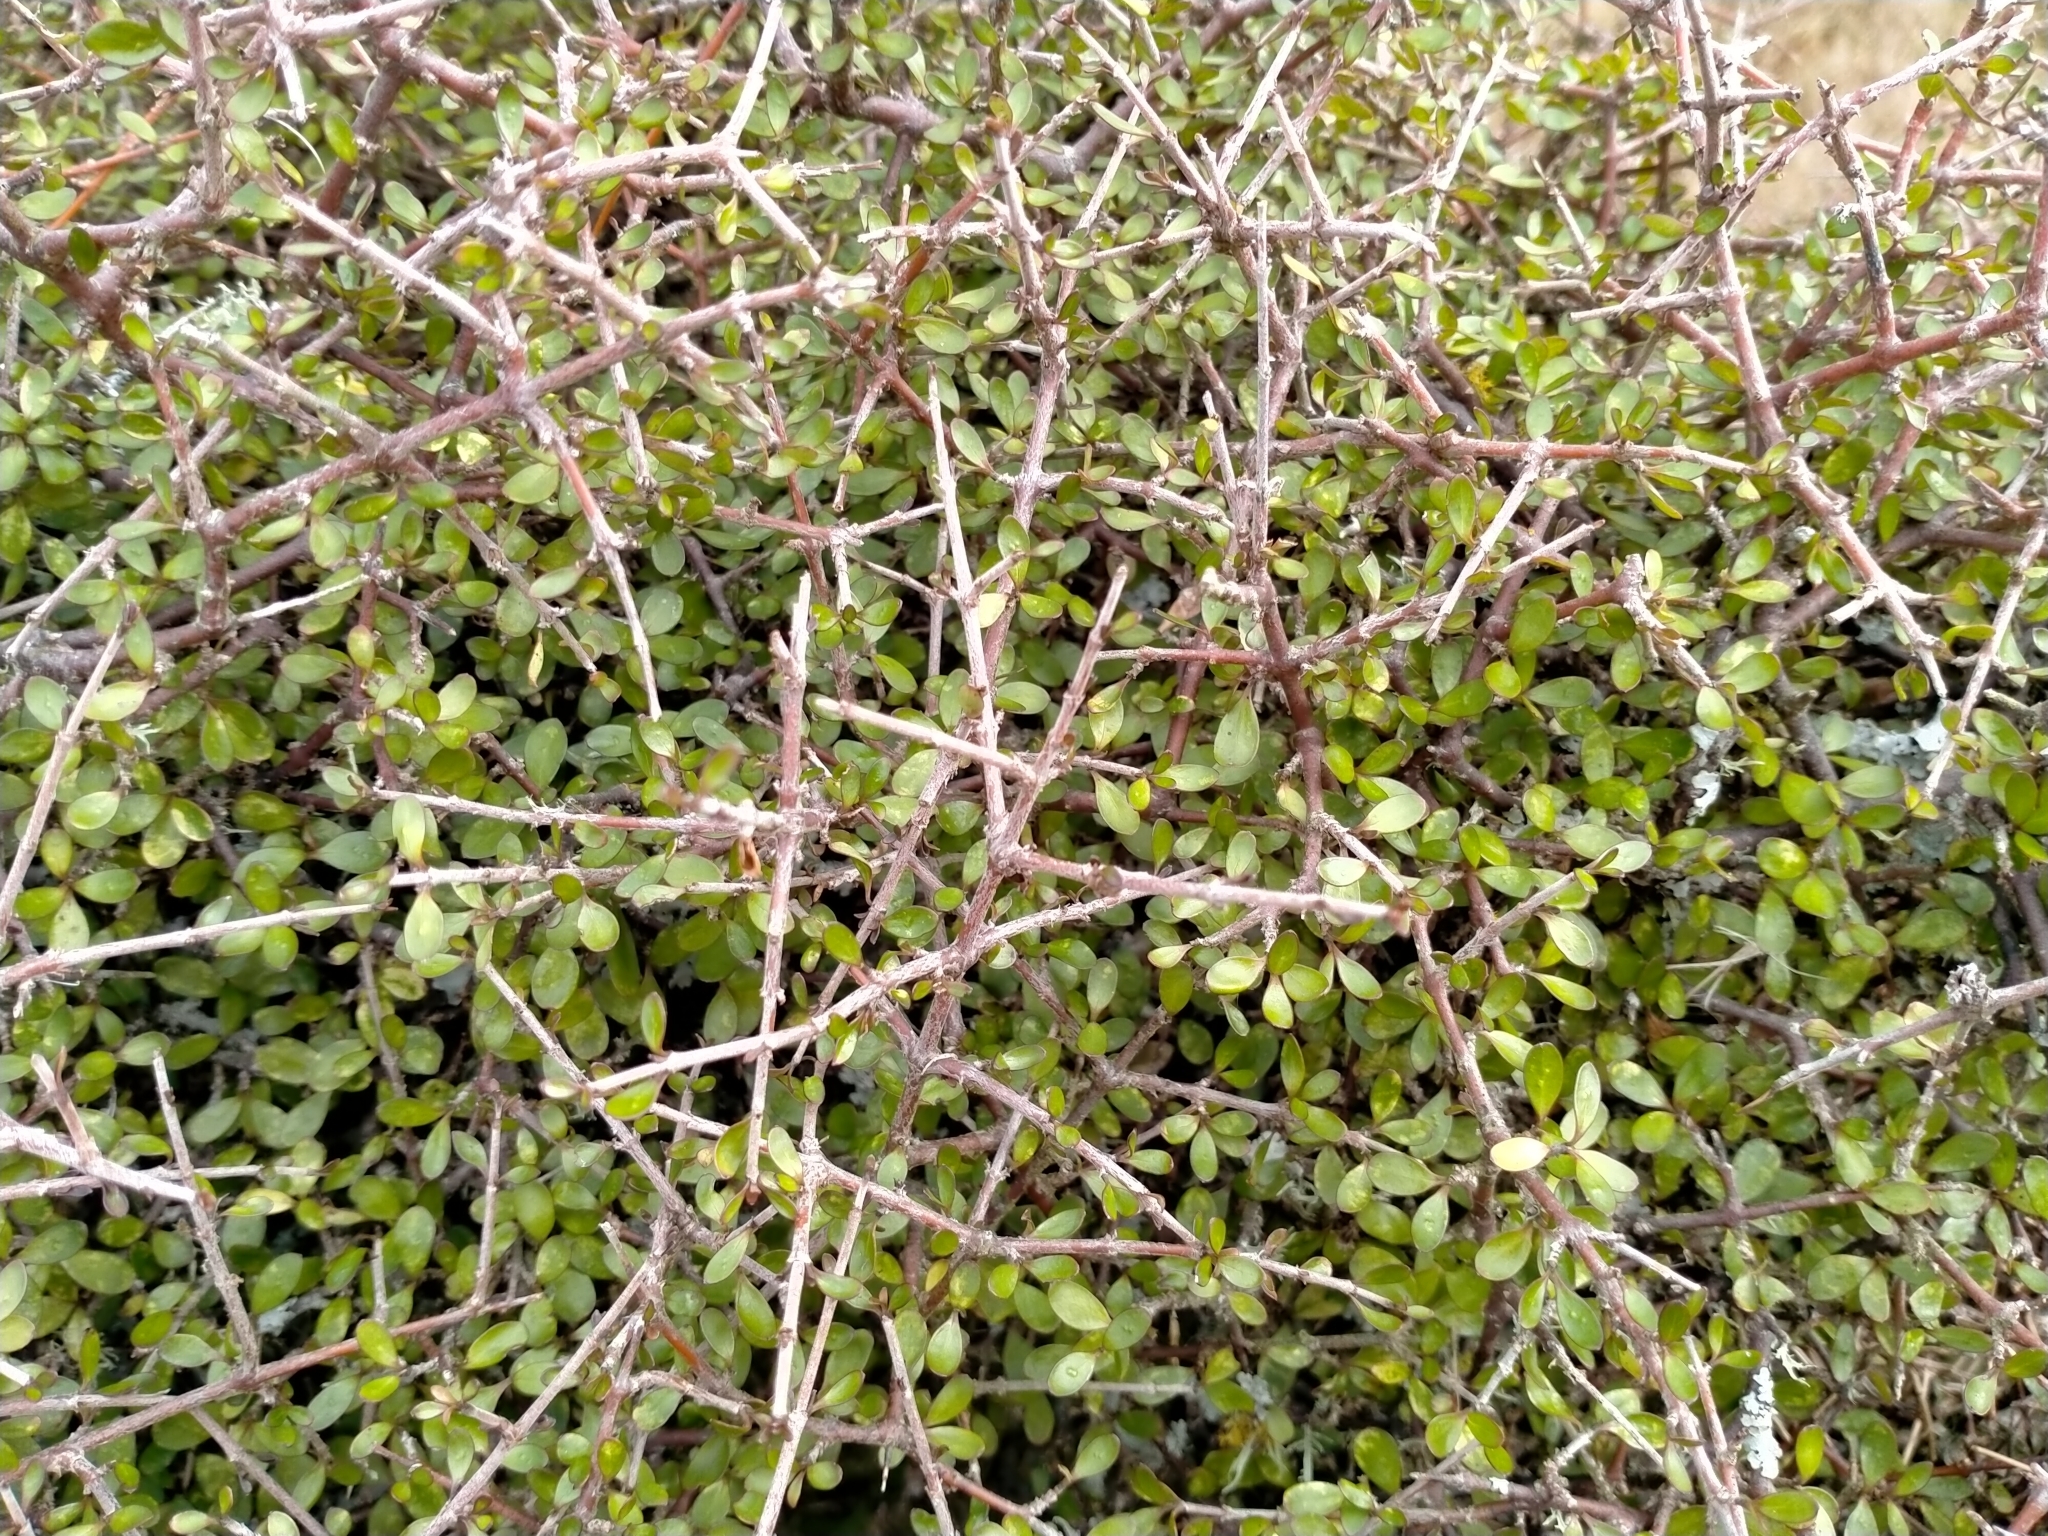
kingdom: Plantae
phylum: Tracheophyta
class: Magnoliopsida
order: Gentianales
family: Rubiaceae
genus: Coprosma
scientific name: Coprosma rigida
